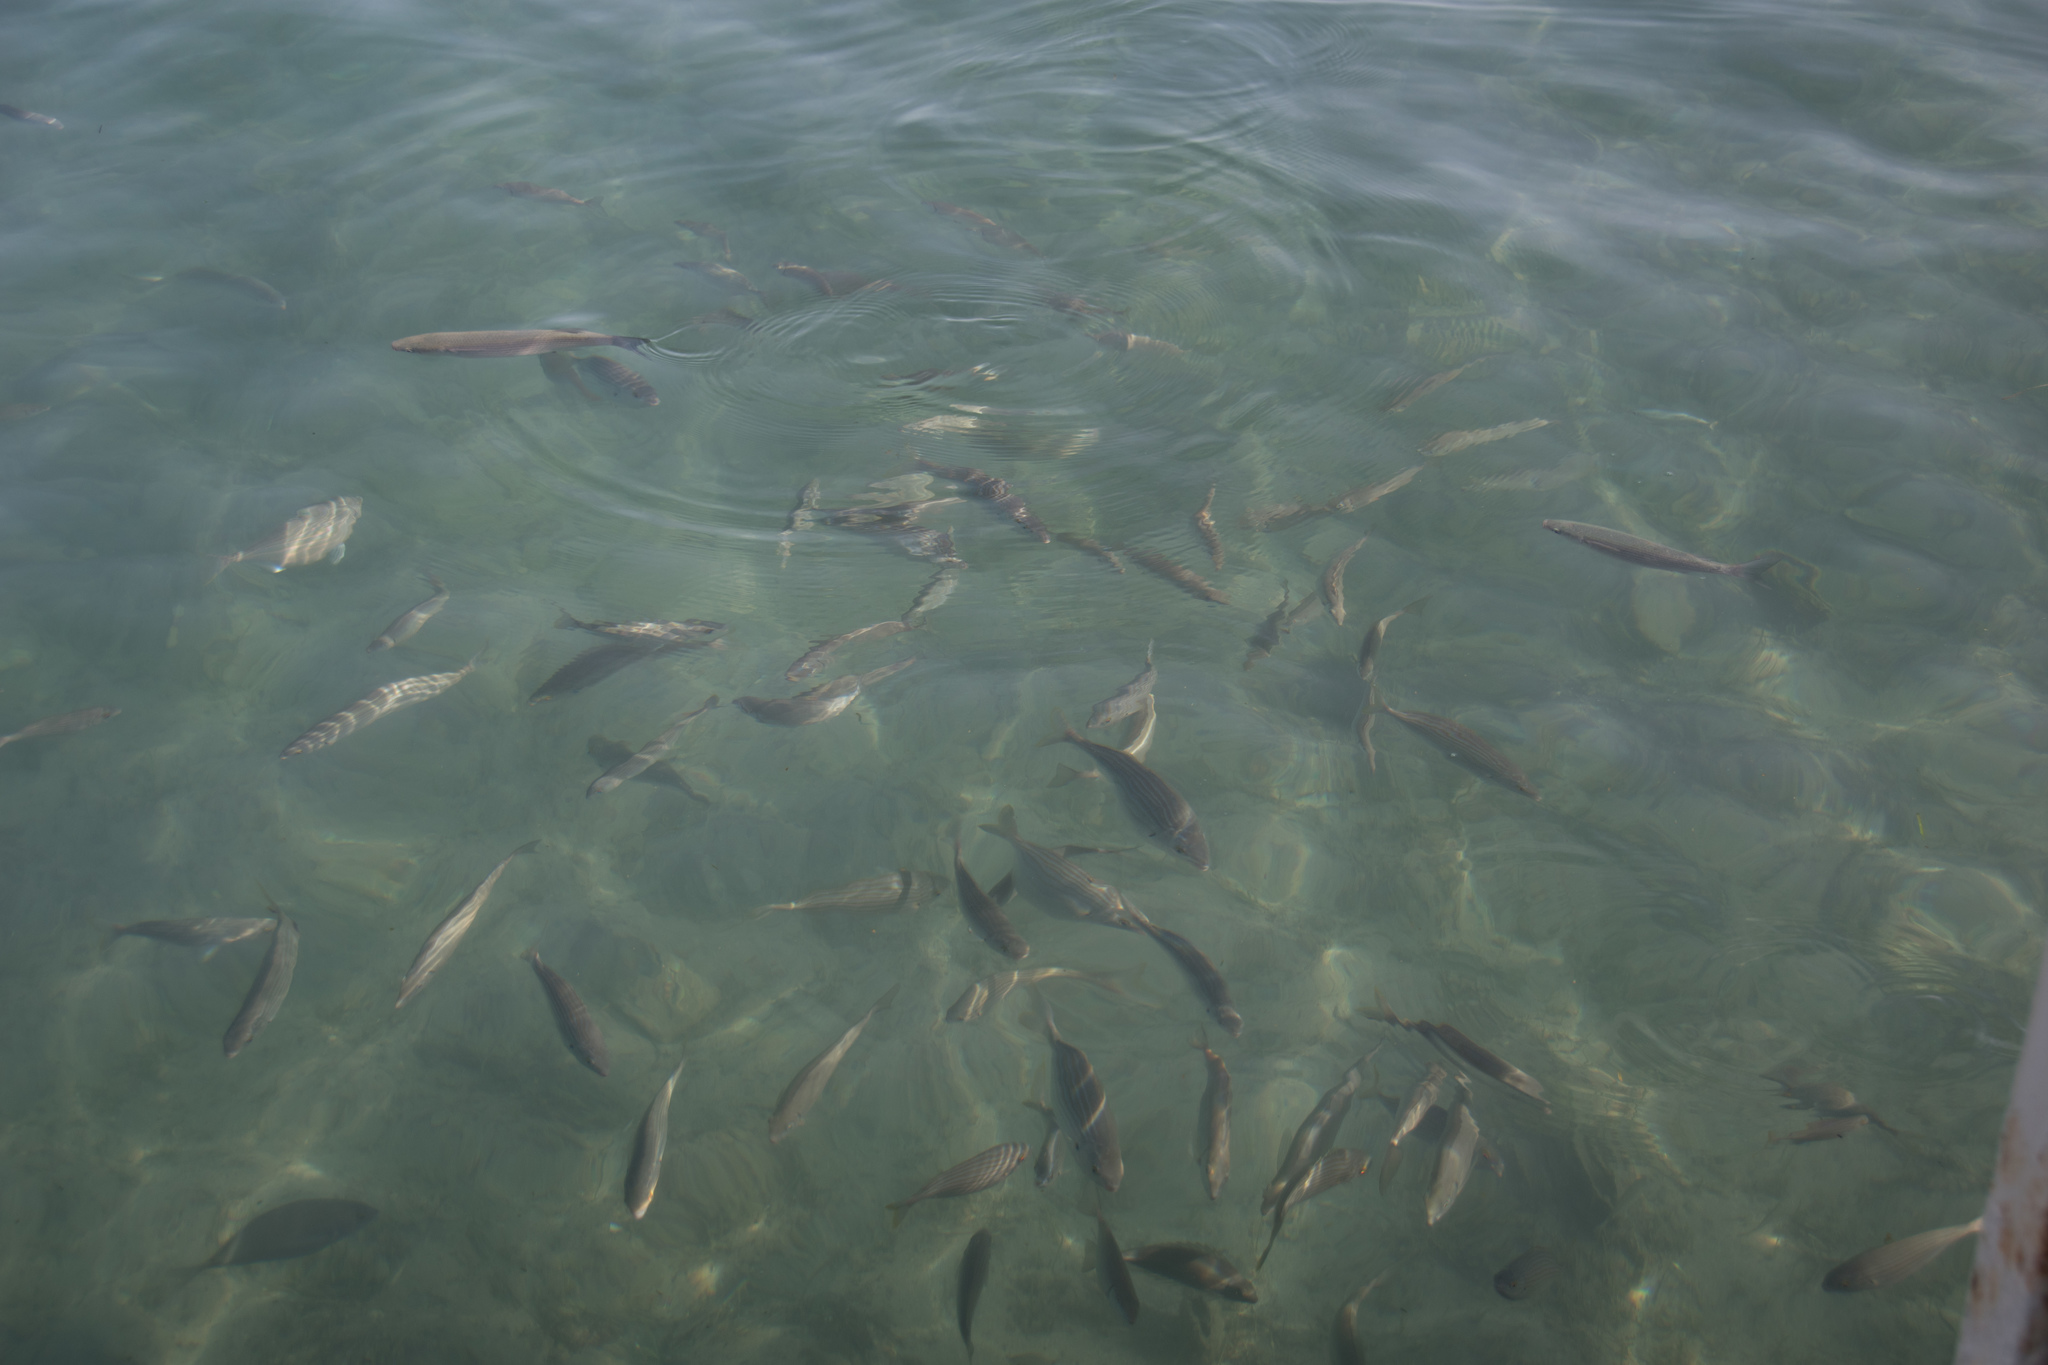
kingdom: Animalia
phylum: Chordata
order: Perciformes
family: Sparidae
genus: Sarpa
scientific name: Sarpa salpa
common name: Salema
